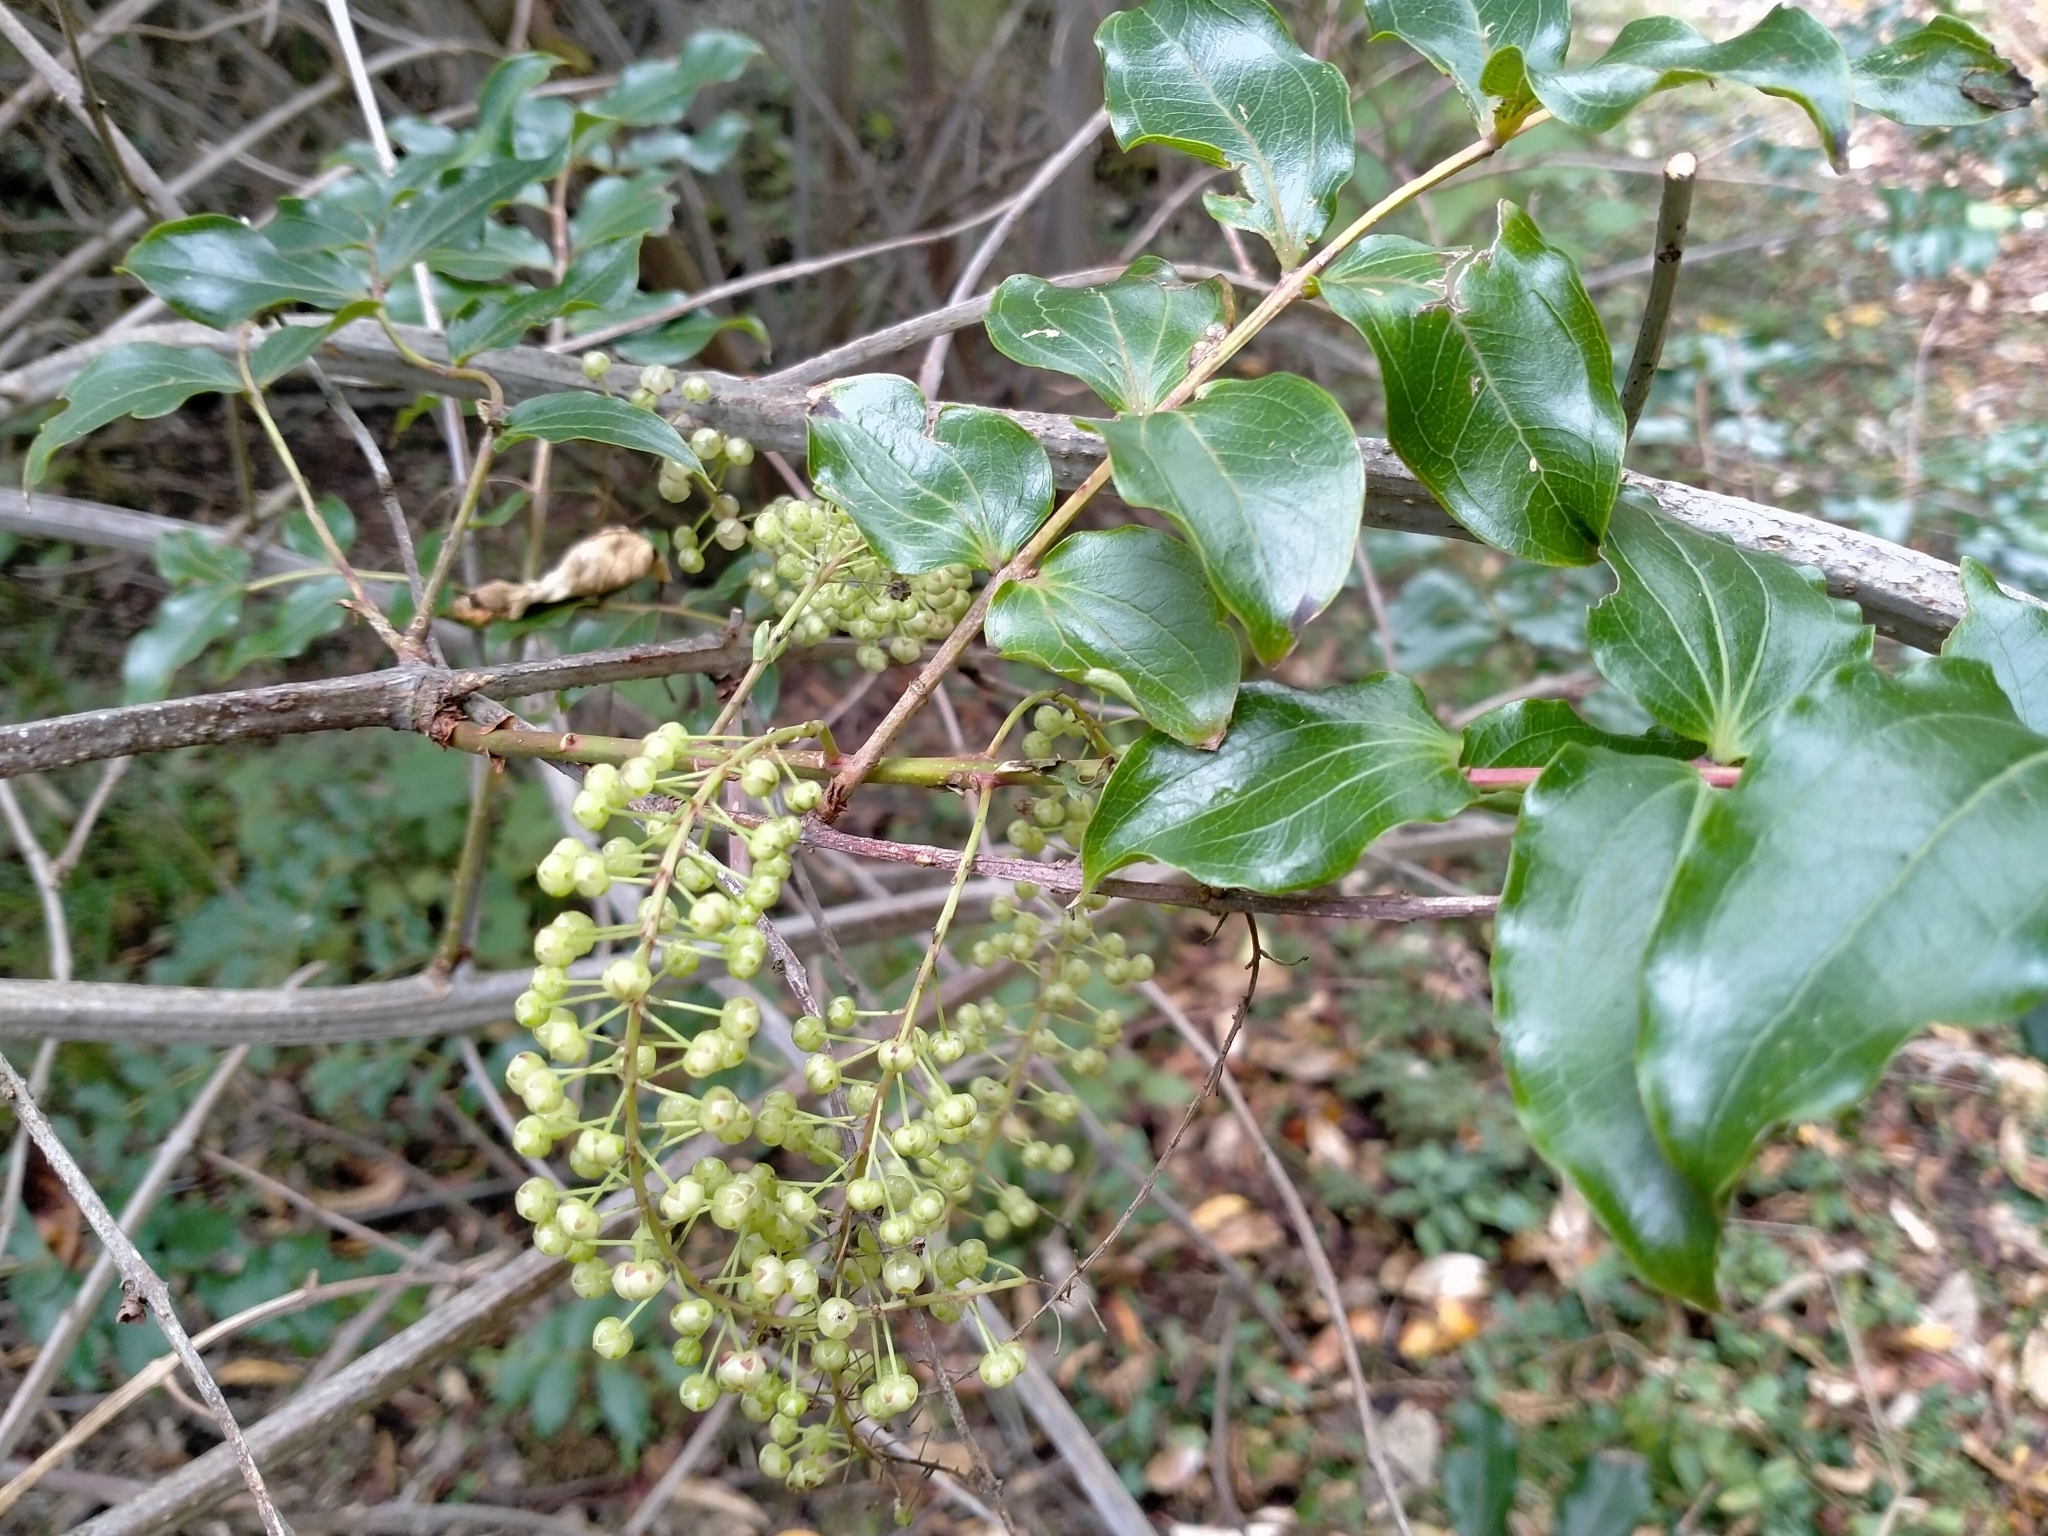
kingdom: Plantae
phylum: Tracheophyta
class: Magnoliopsida
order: Cucurbitales
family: Coriariaceae
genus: Coriaria
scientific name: Coriaria arborea
